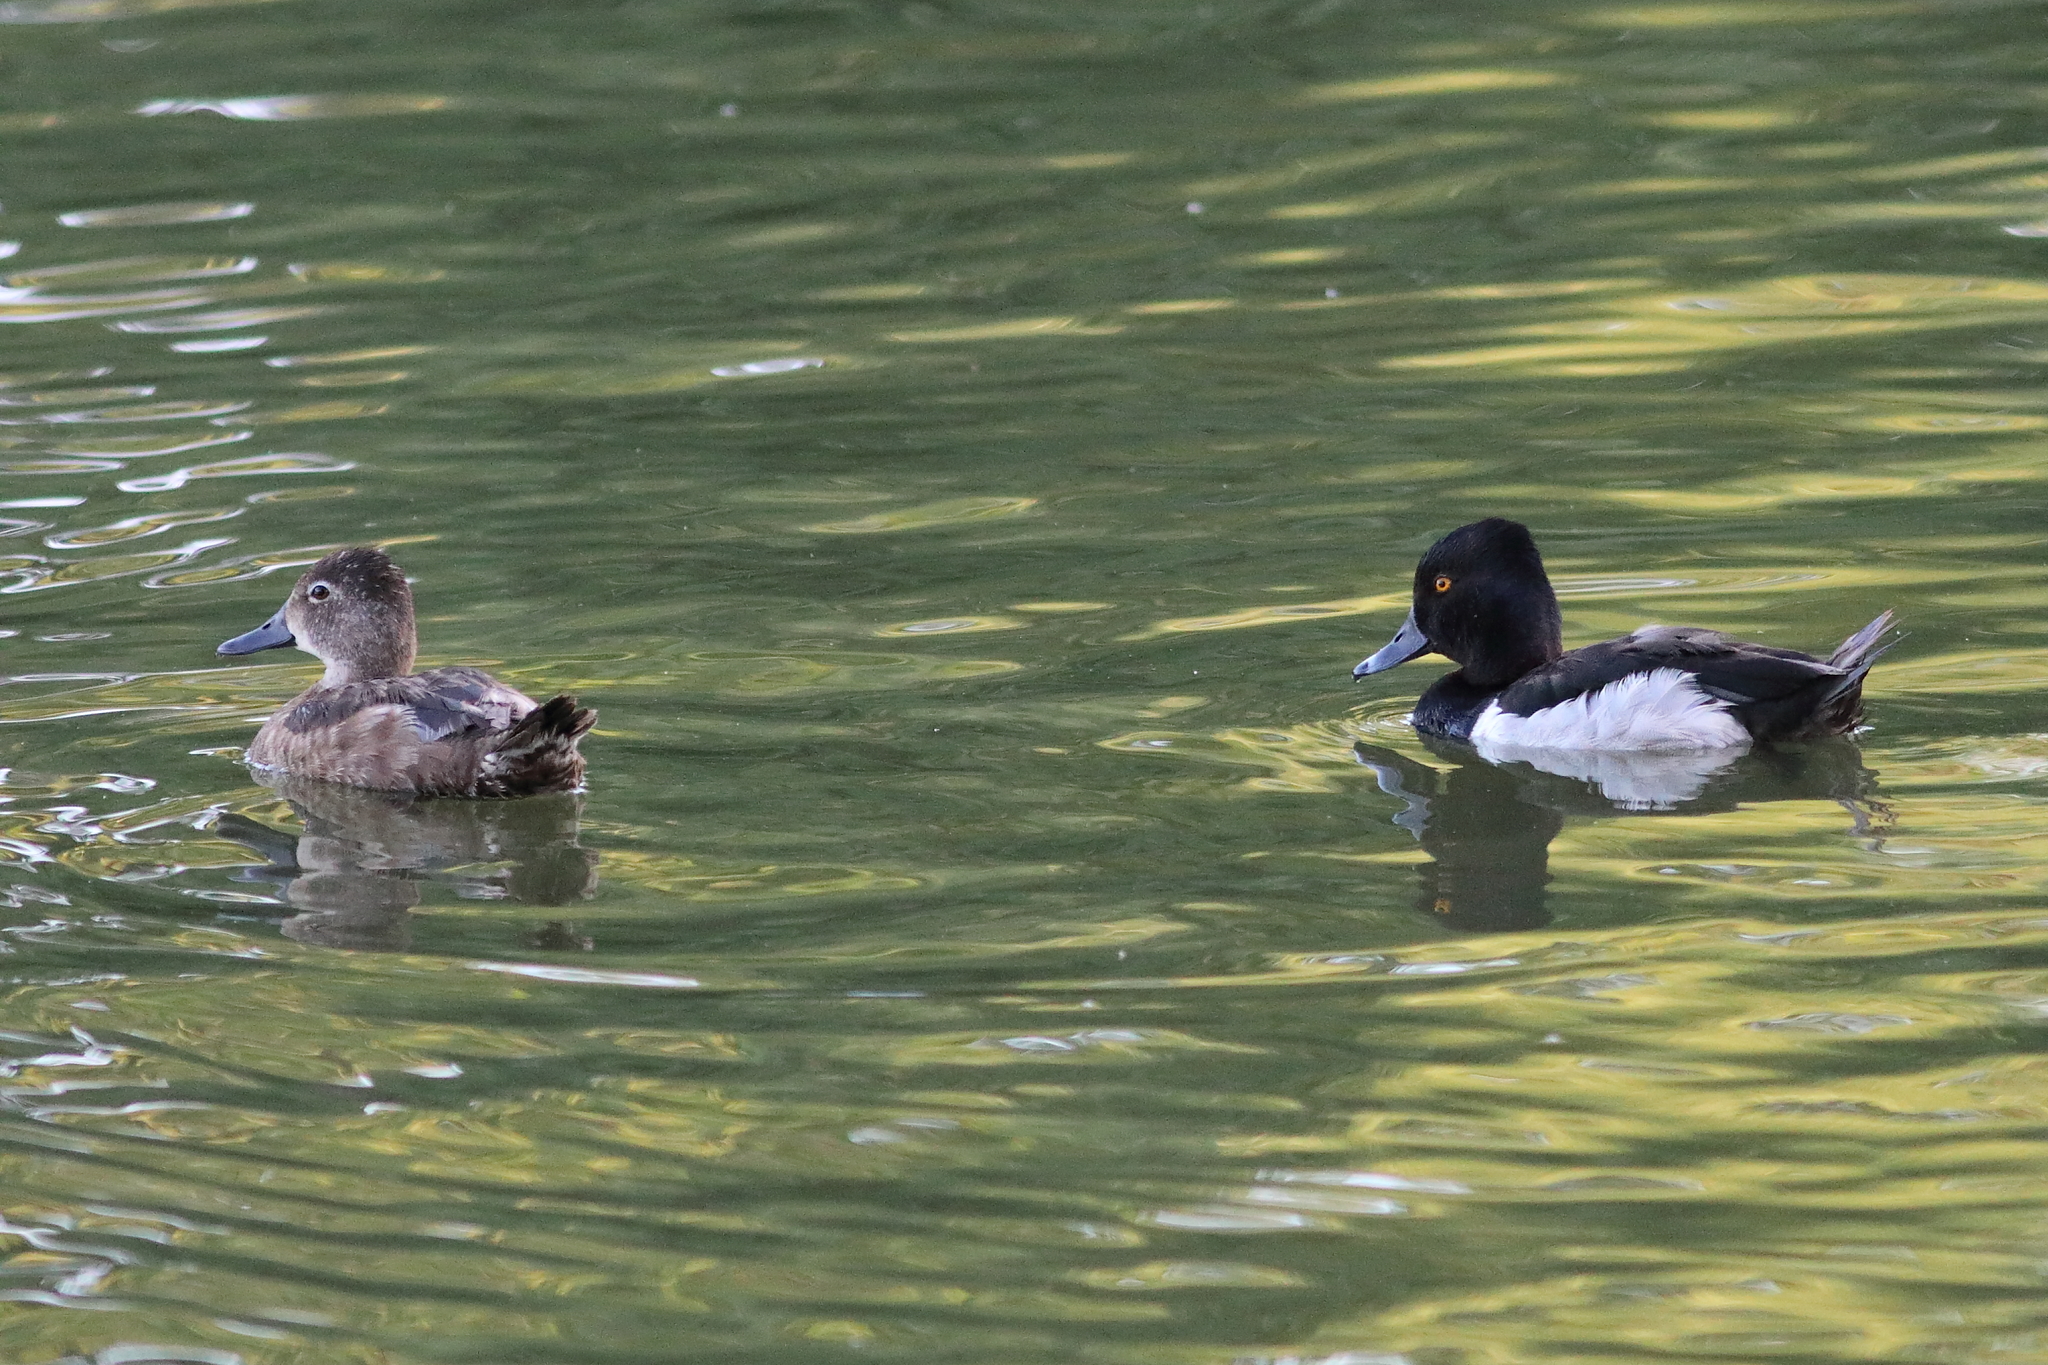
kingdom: Animalia
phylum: Chordata
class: Aves
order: Anseriformes
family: Anatidae
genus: Aythya
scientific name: Aythya collaris
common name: Ring-necked duck
